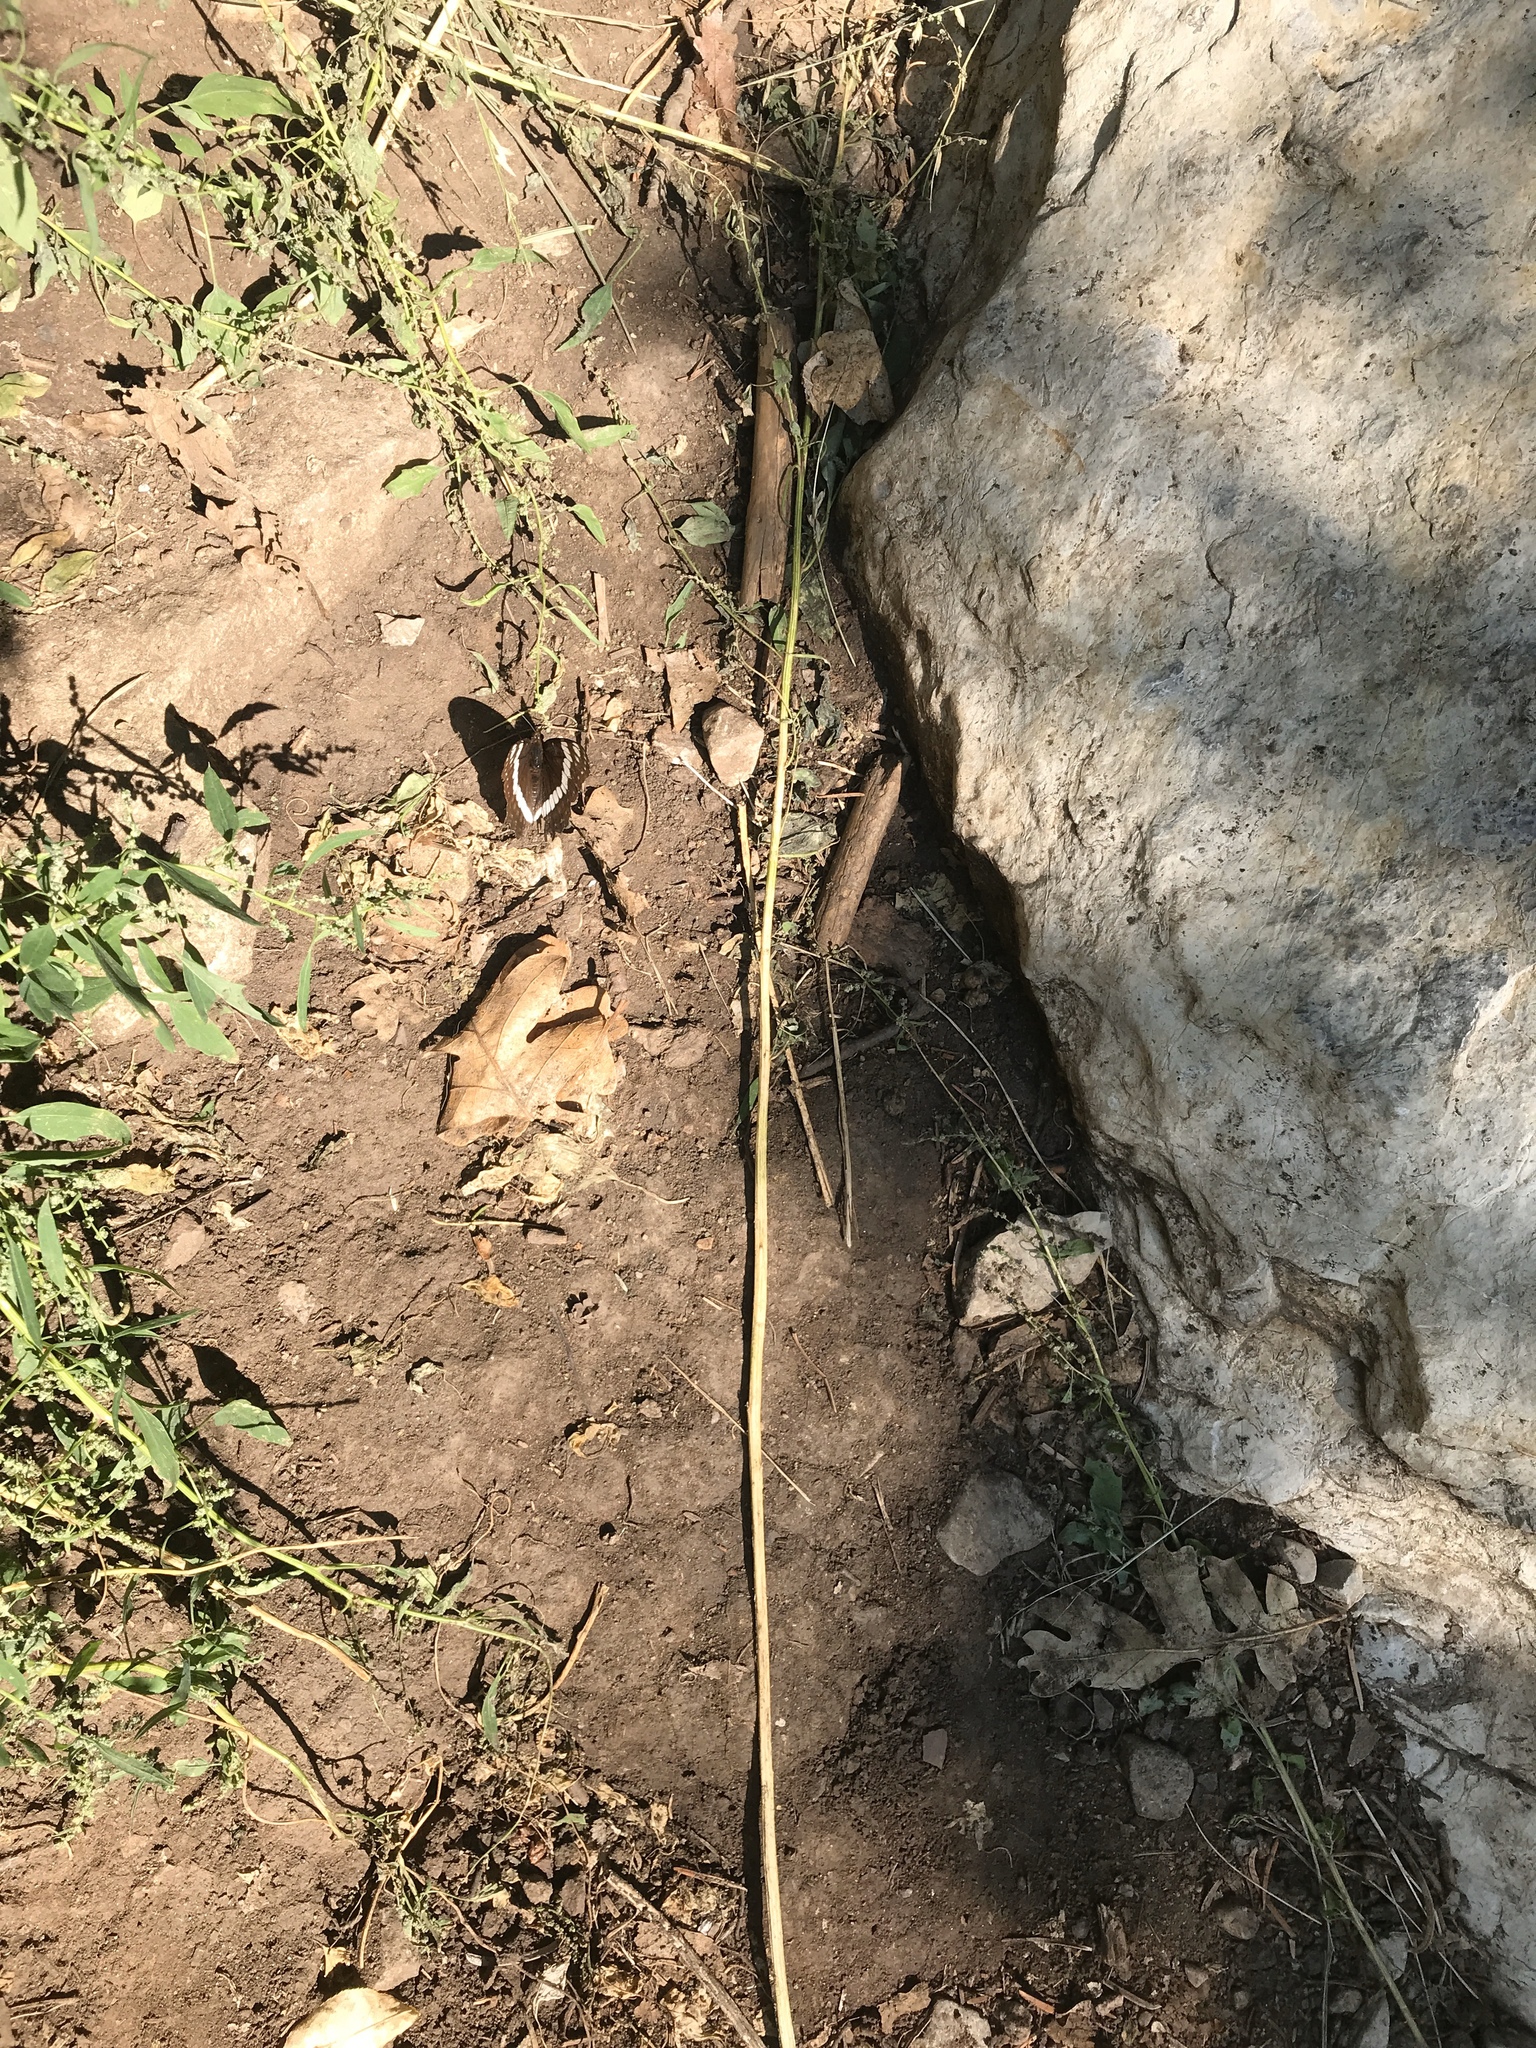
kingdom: Animalia
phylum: Arthropoda
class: Insecta
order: Lepidoptera
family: Nymphalidae
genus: Limenitis
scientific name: Limenitis weidemeyerii
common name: Weidemeyer's admiral
